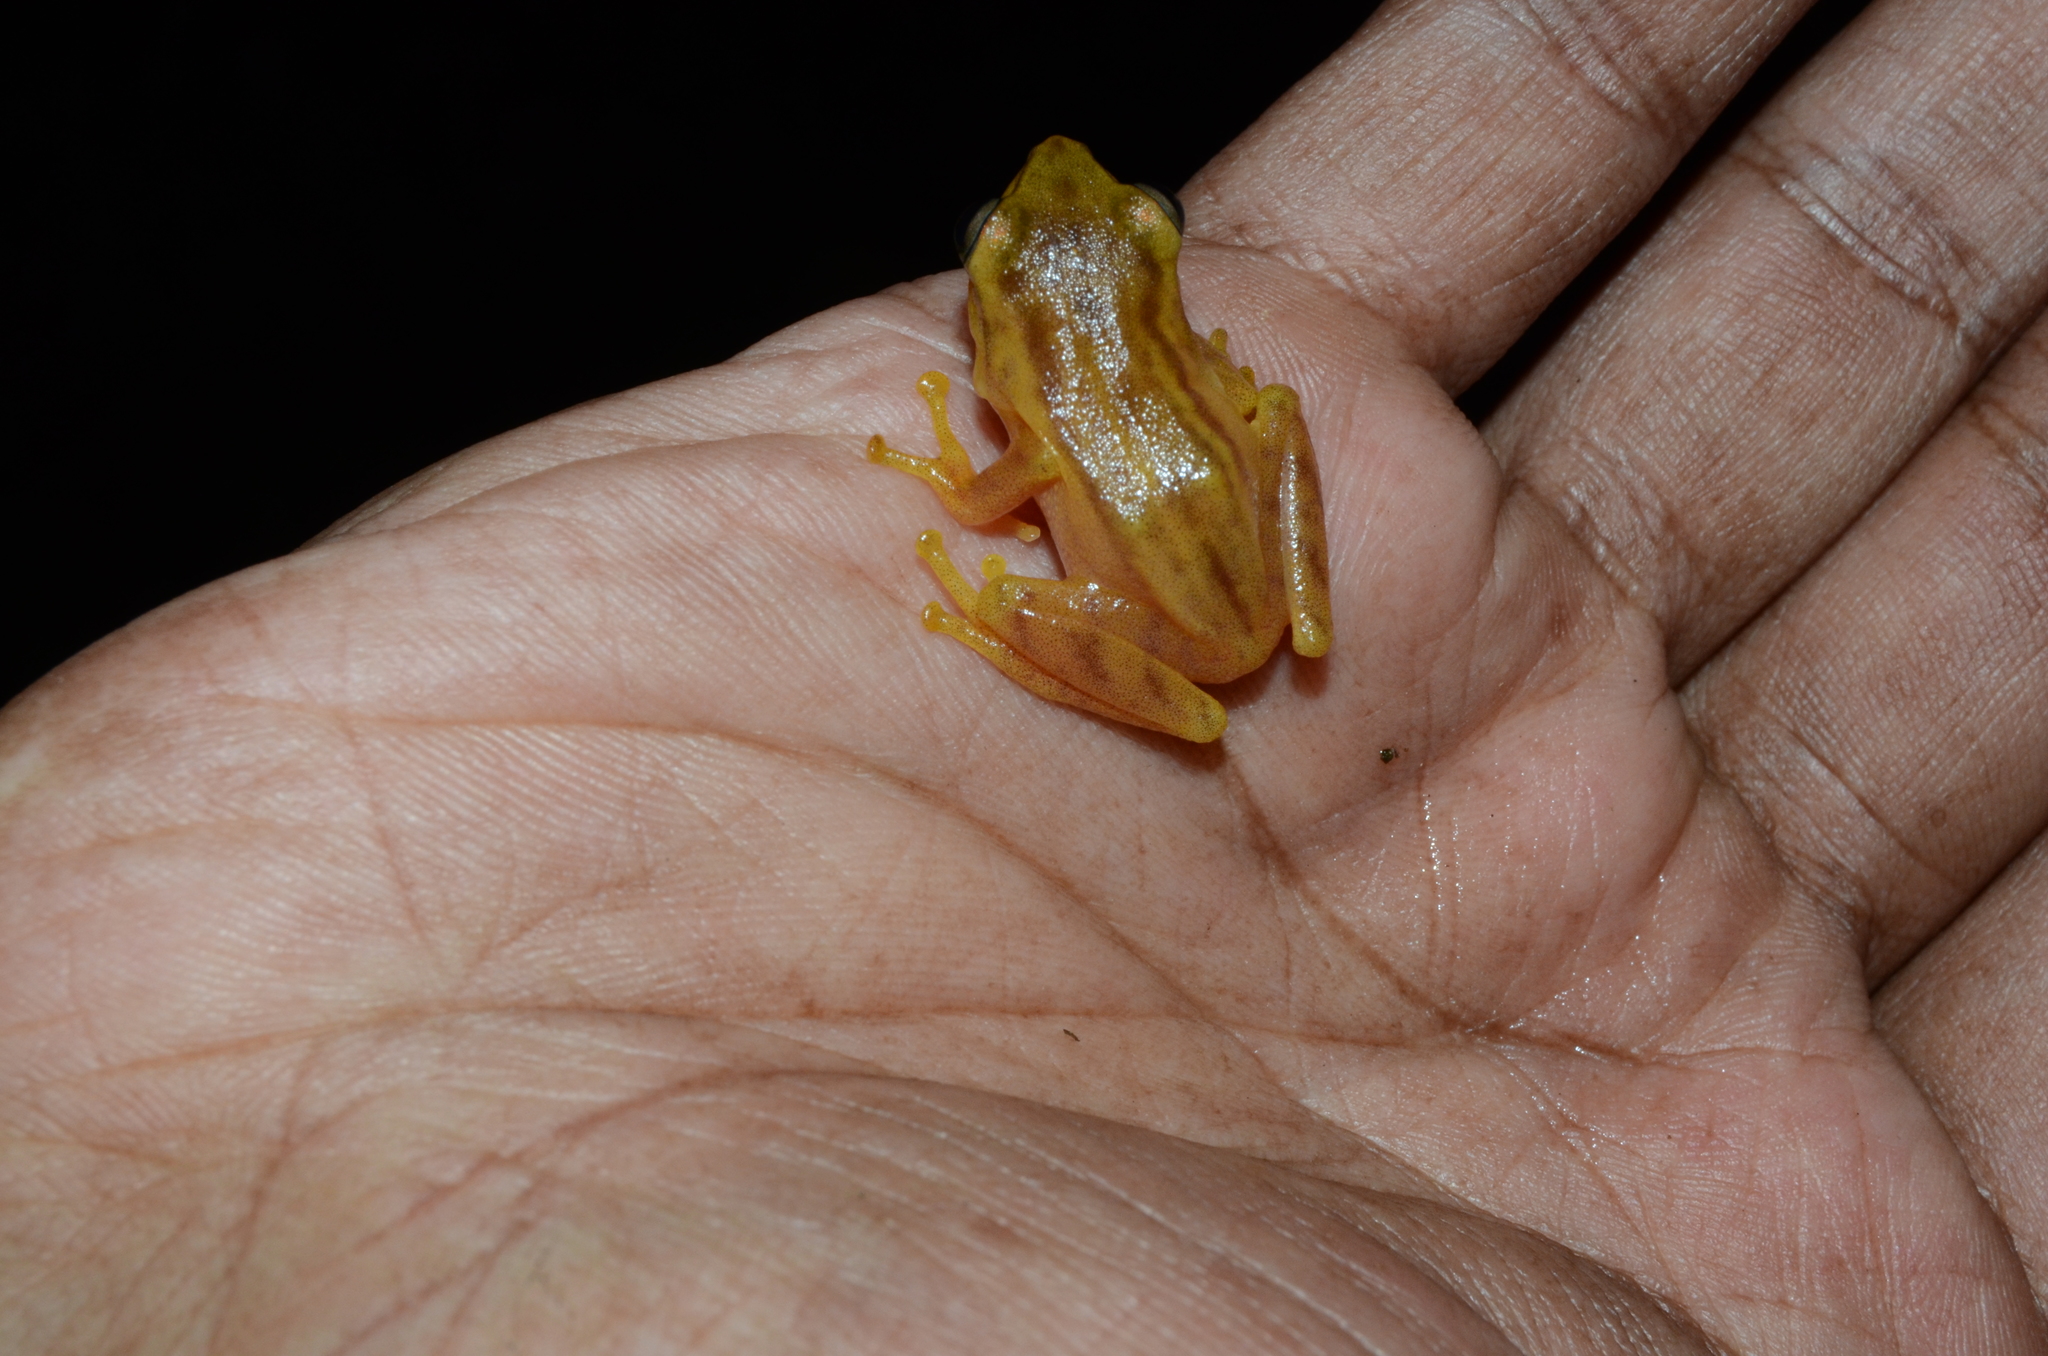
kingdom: Animalia
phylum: Chordata
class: Amphibia
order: Anura
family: Rhacophoridae
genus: Raorchestes
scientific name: Raorchestes luteolus
